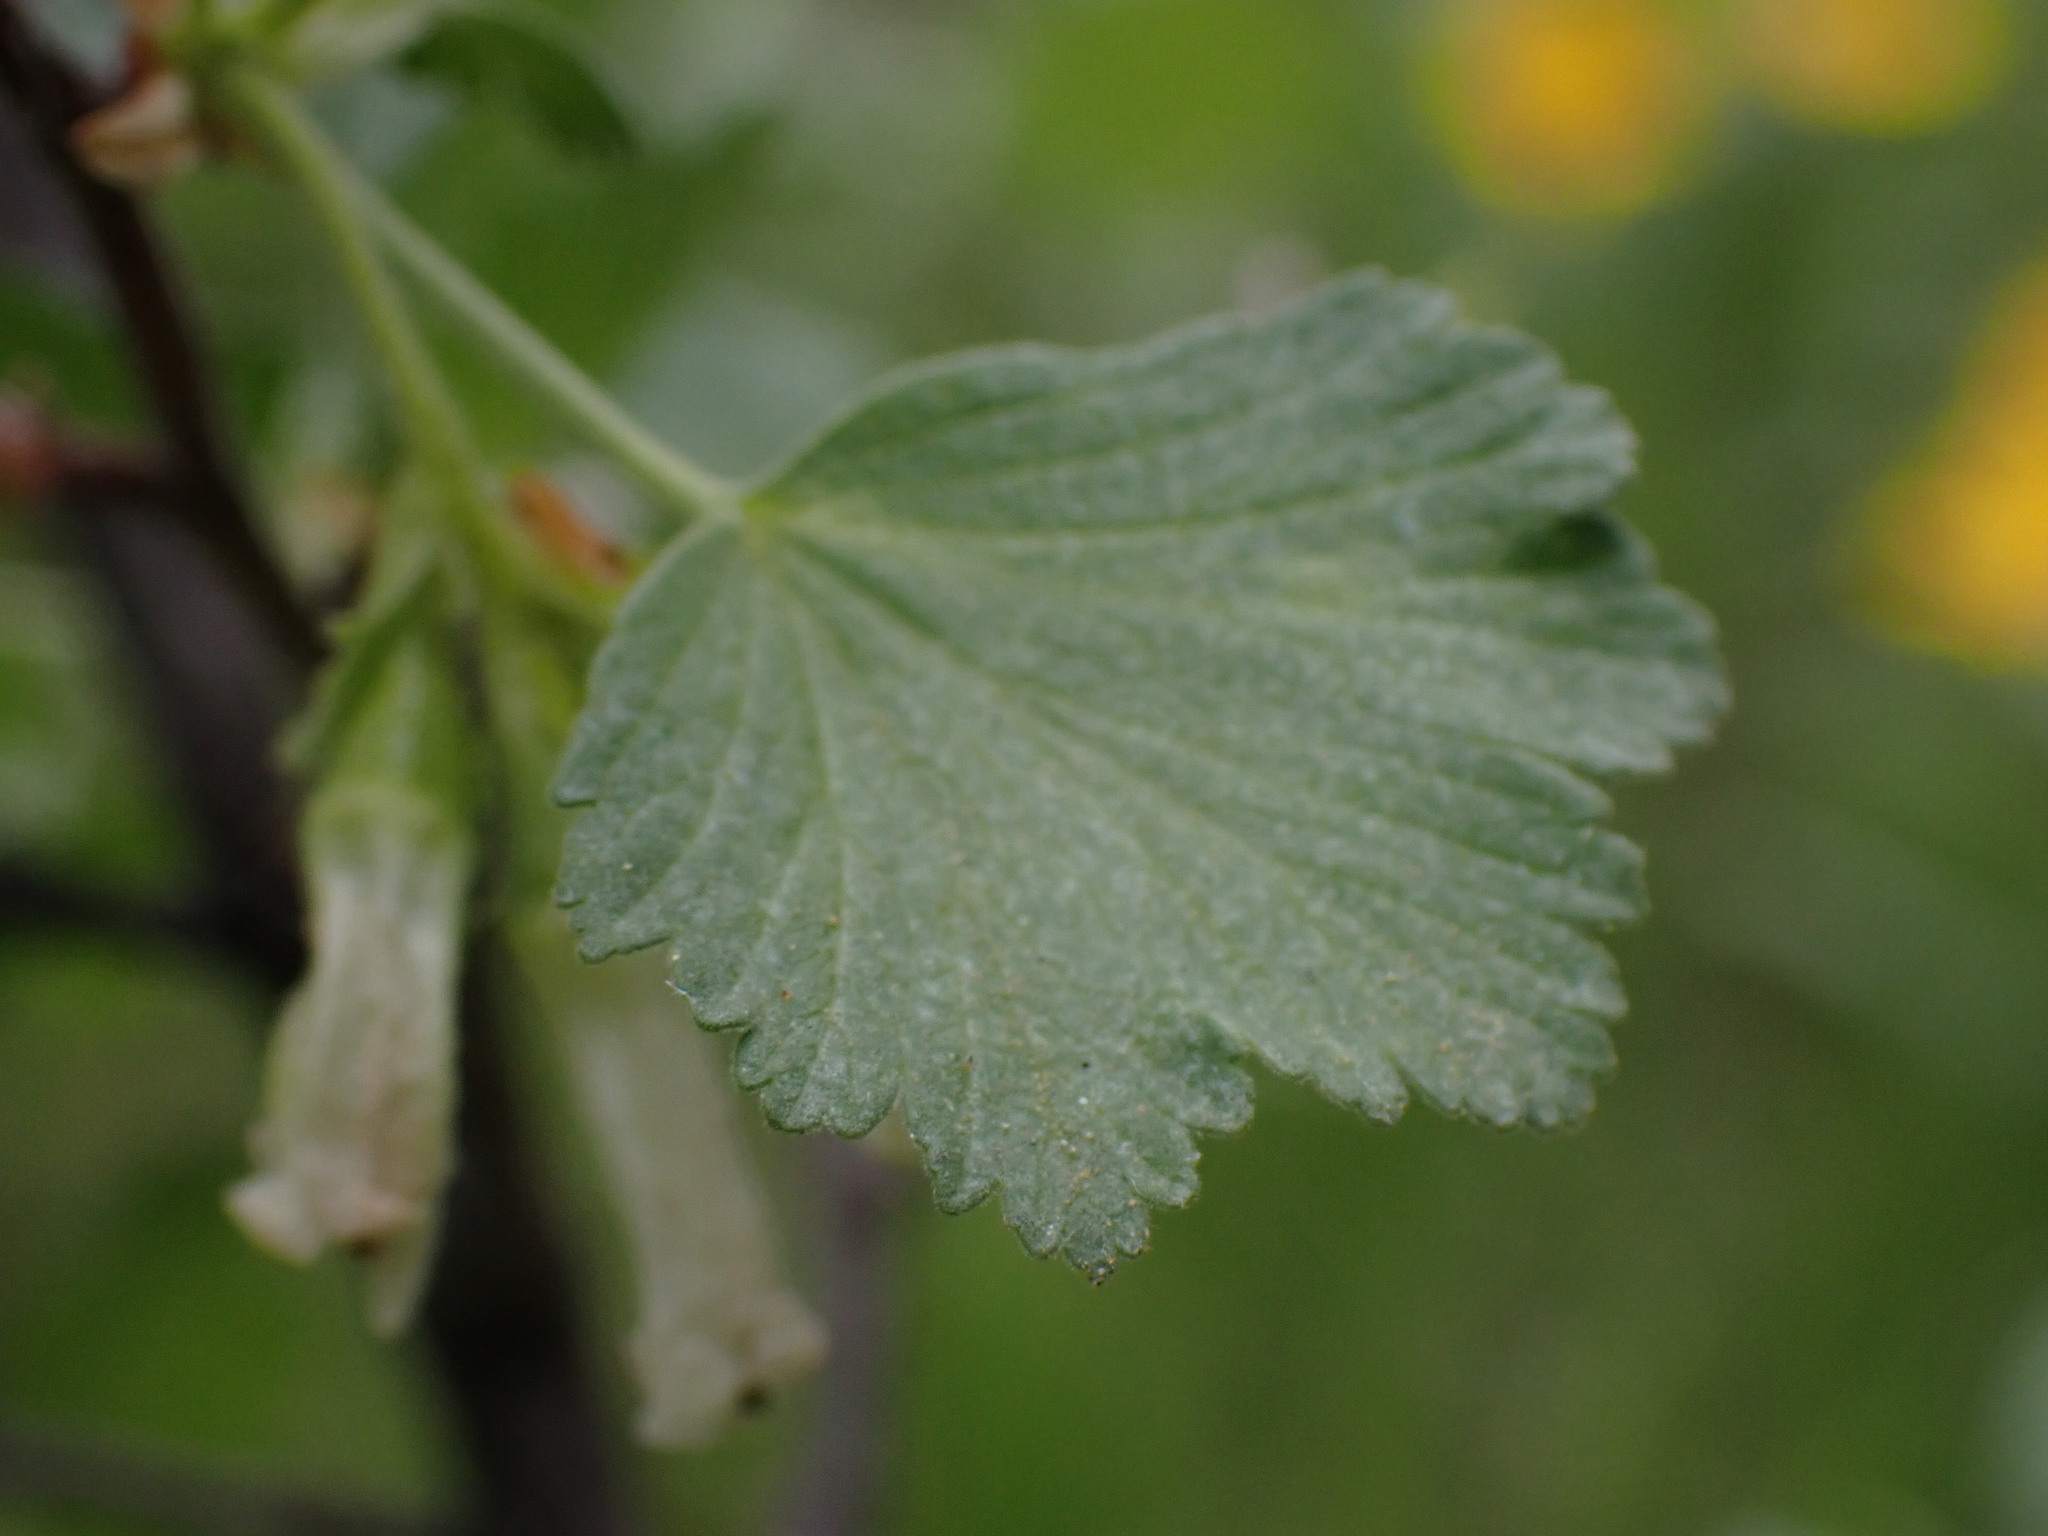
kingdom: Plantae
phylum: Tracheophyta
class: Magnoliopsida
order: Saxifragales
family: Grossulariaceae
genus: Ribes
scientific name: Ribes cereum
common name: Wax currant
